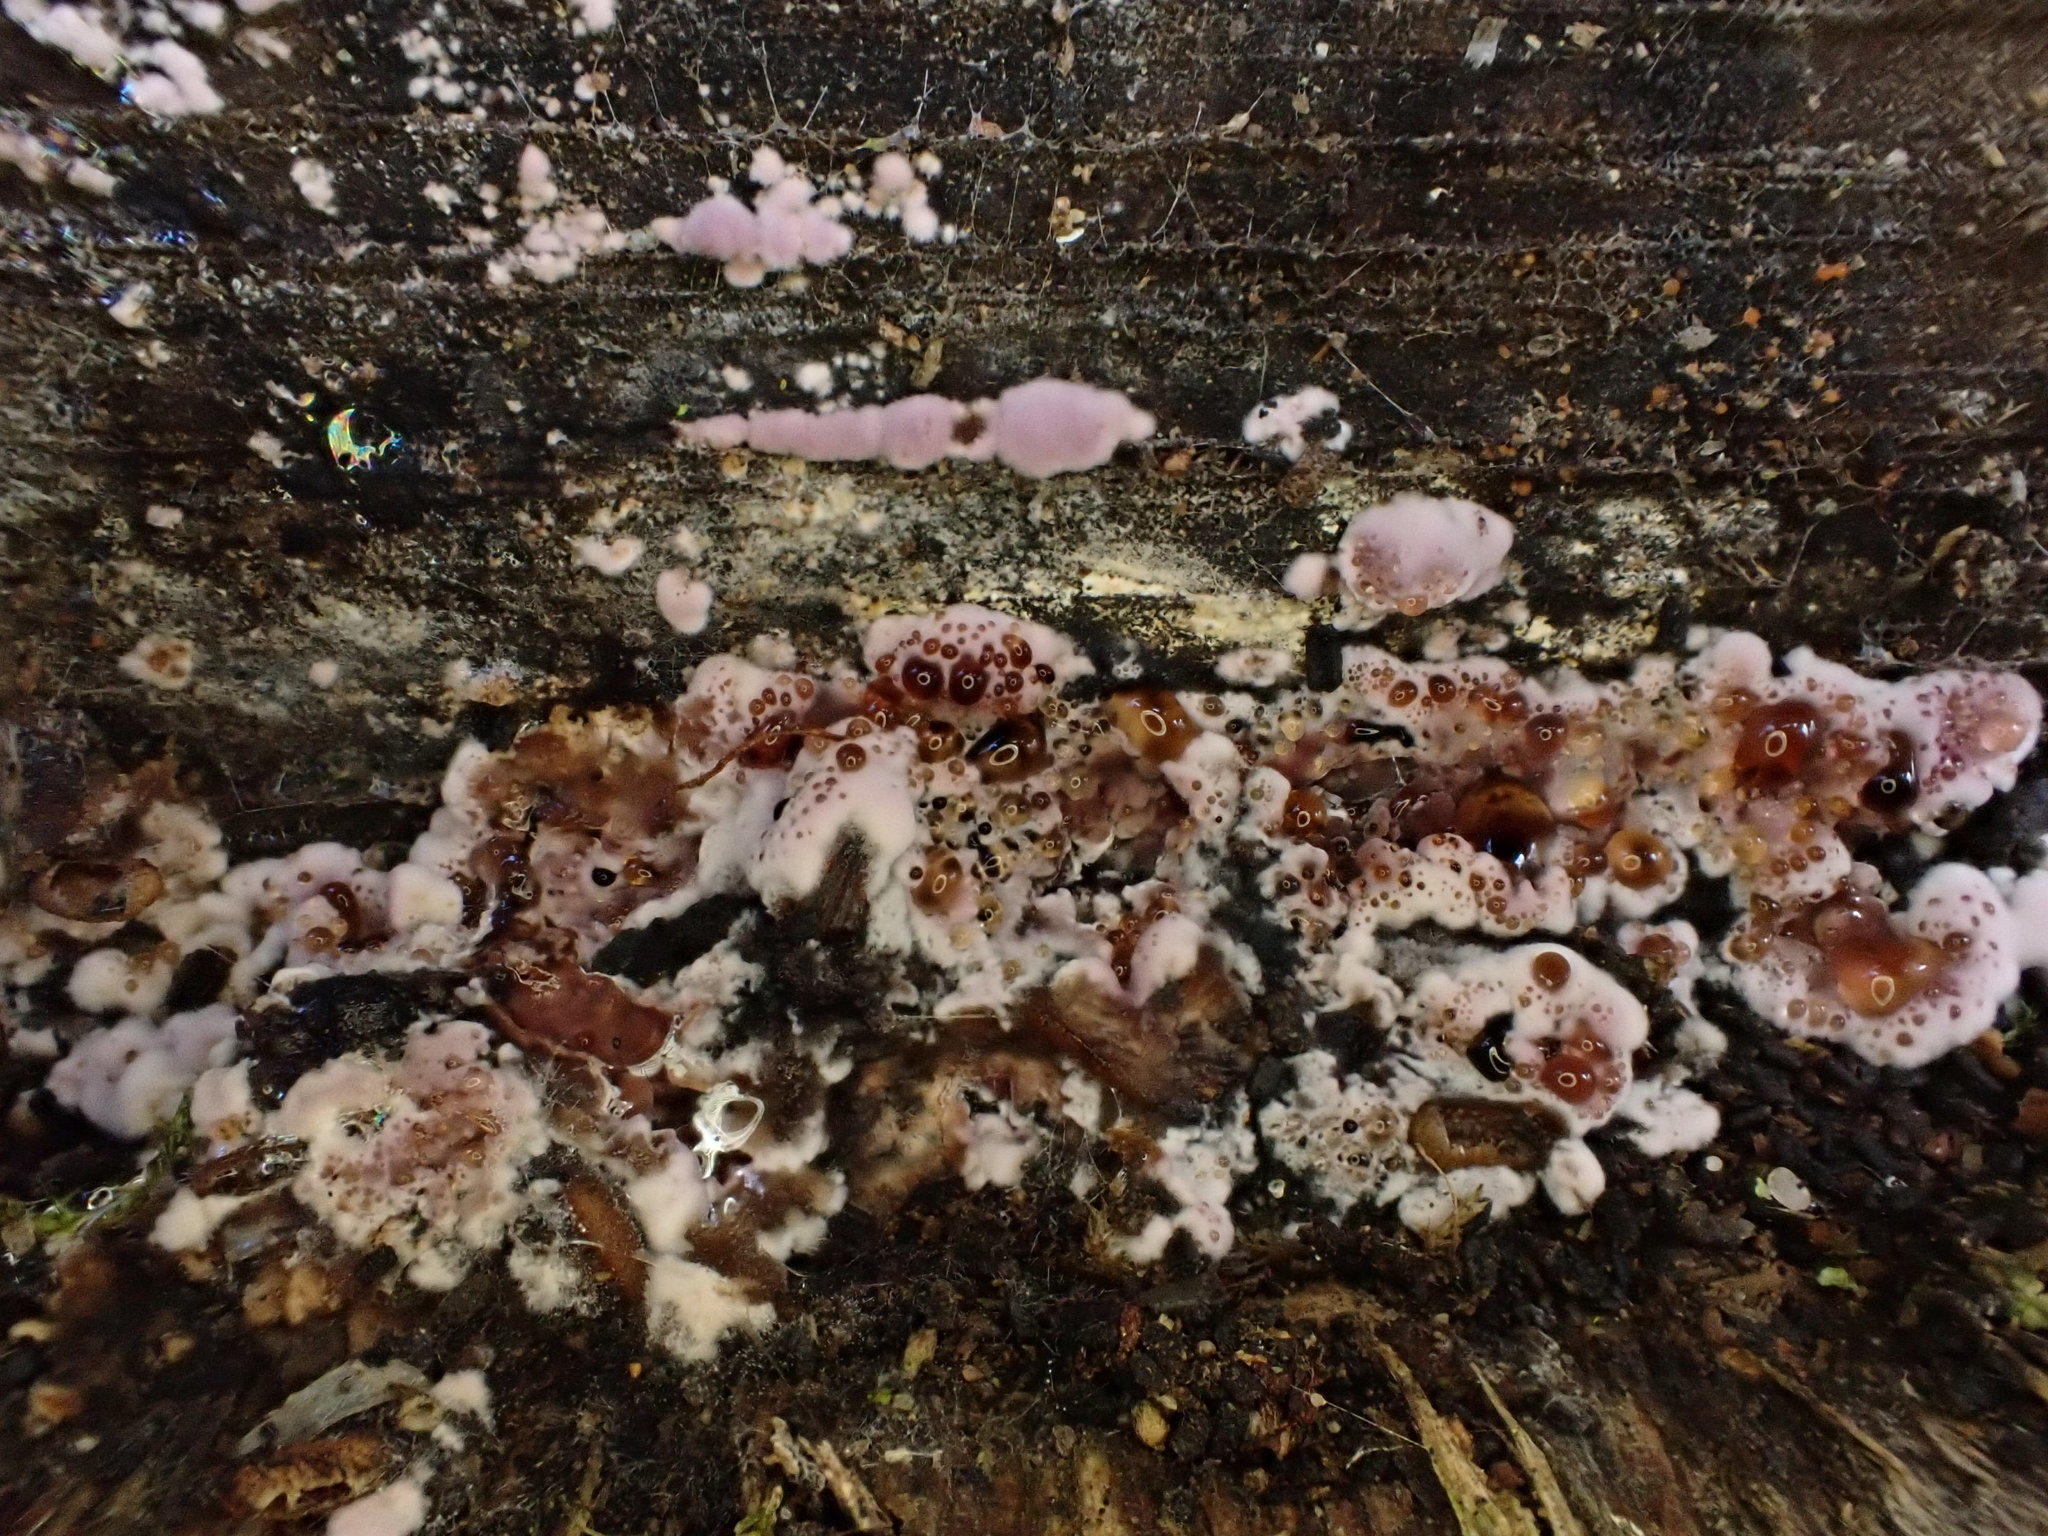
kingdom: Fungi
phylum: Basidiomycota
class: Agaricomycetes
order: Agaricales
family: Cyphellaceae
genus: Chondrostereum
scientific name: Chondrostereum purpureum
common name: Silver leaf disease
